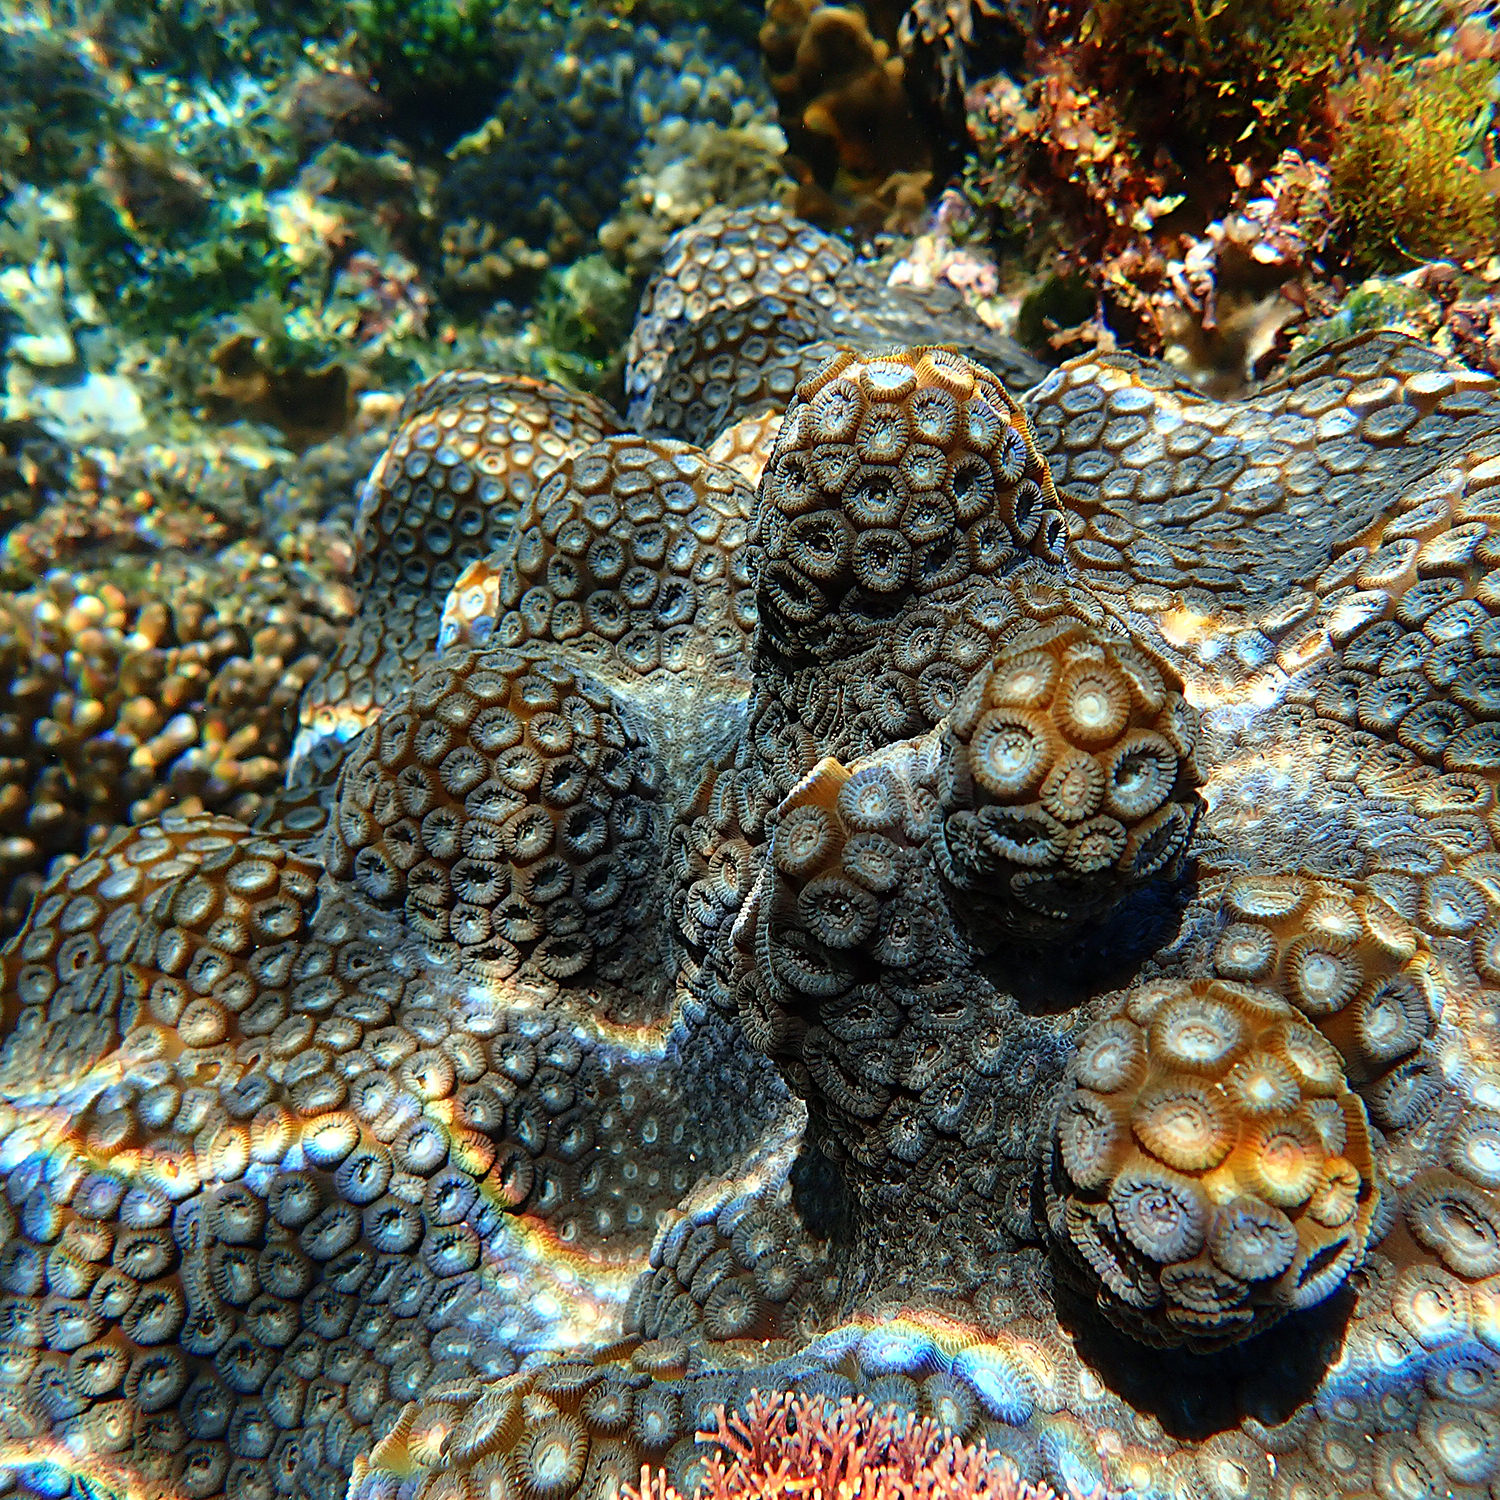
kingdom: Animalia
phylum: Cnidaria
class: Anthozoa
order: Scleractinia
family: Merulinidae
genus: Astrea
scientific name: Astrea curta
